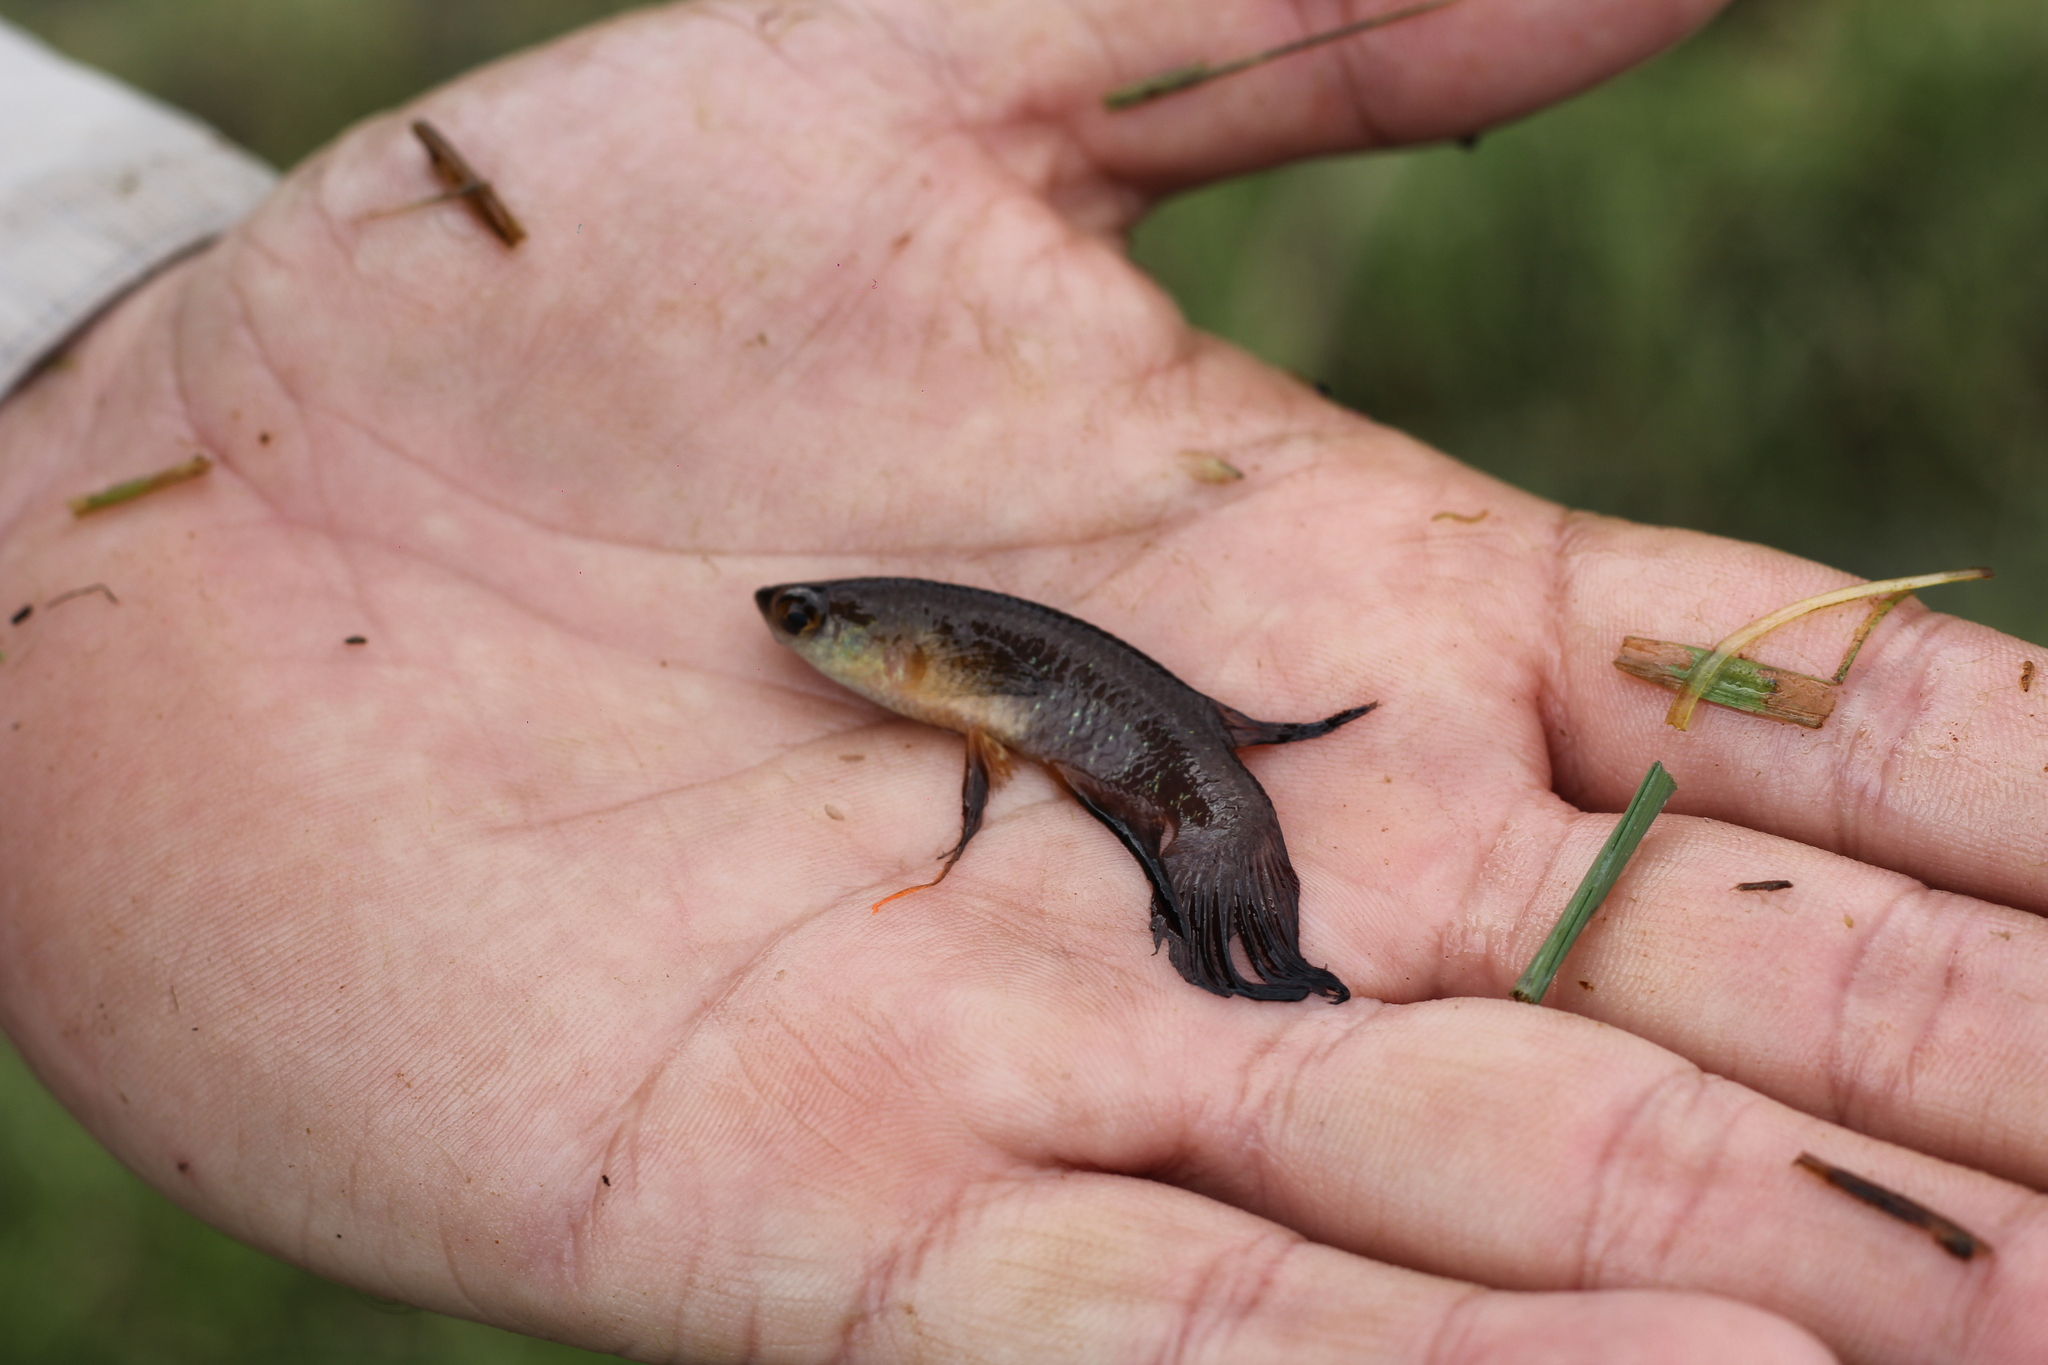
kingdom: Animalia
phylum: Chordata
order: Cyprinodontiformes
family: Rivulidae
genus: Pterolebias
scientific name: Pterolebias longipinnis
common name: Featherfin panchax
